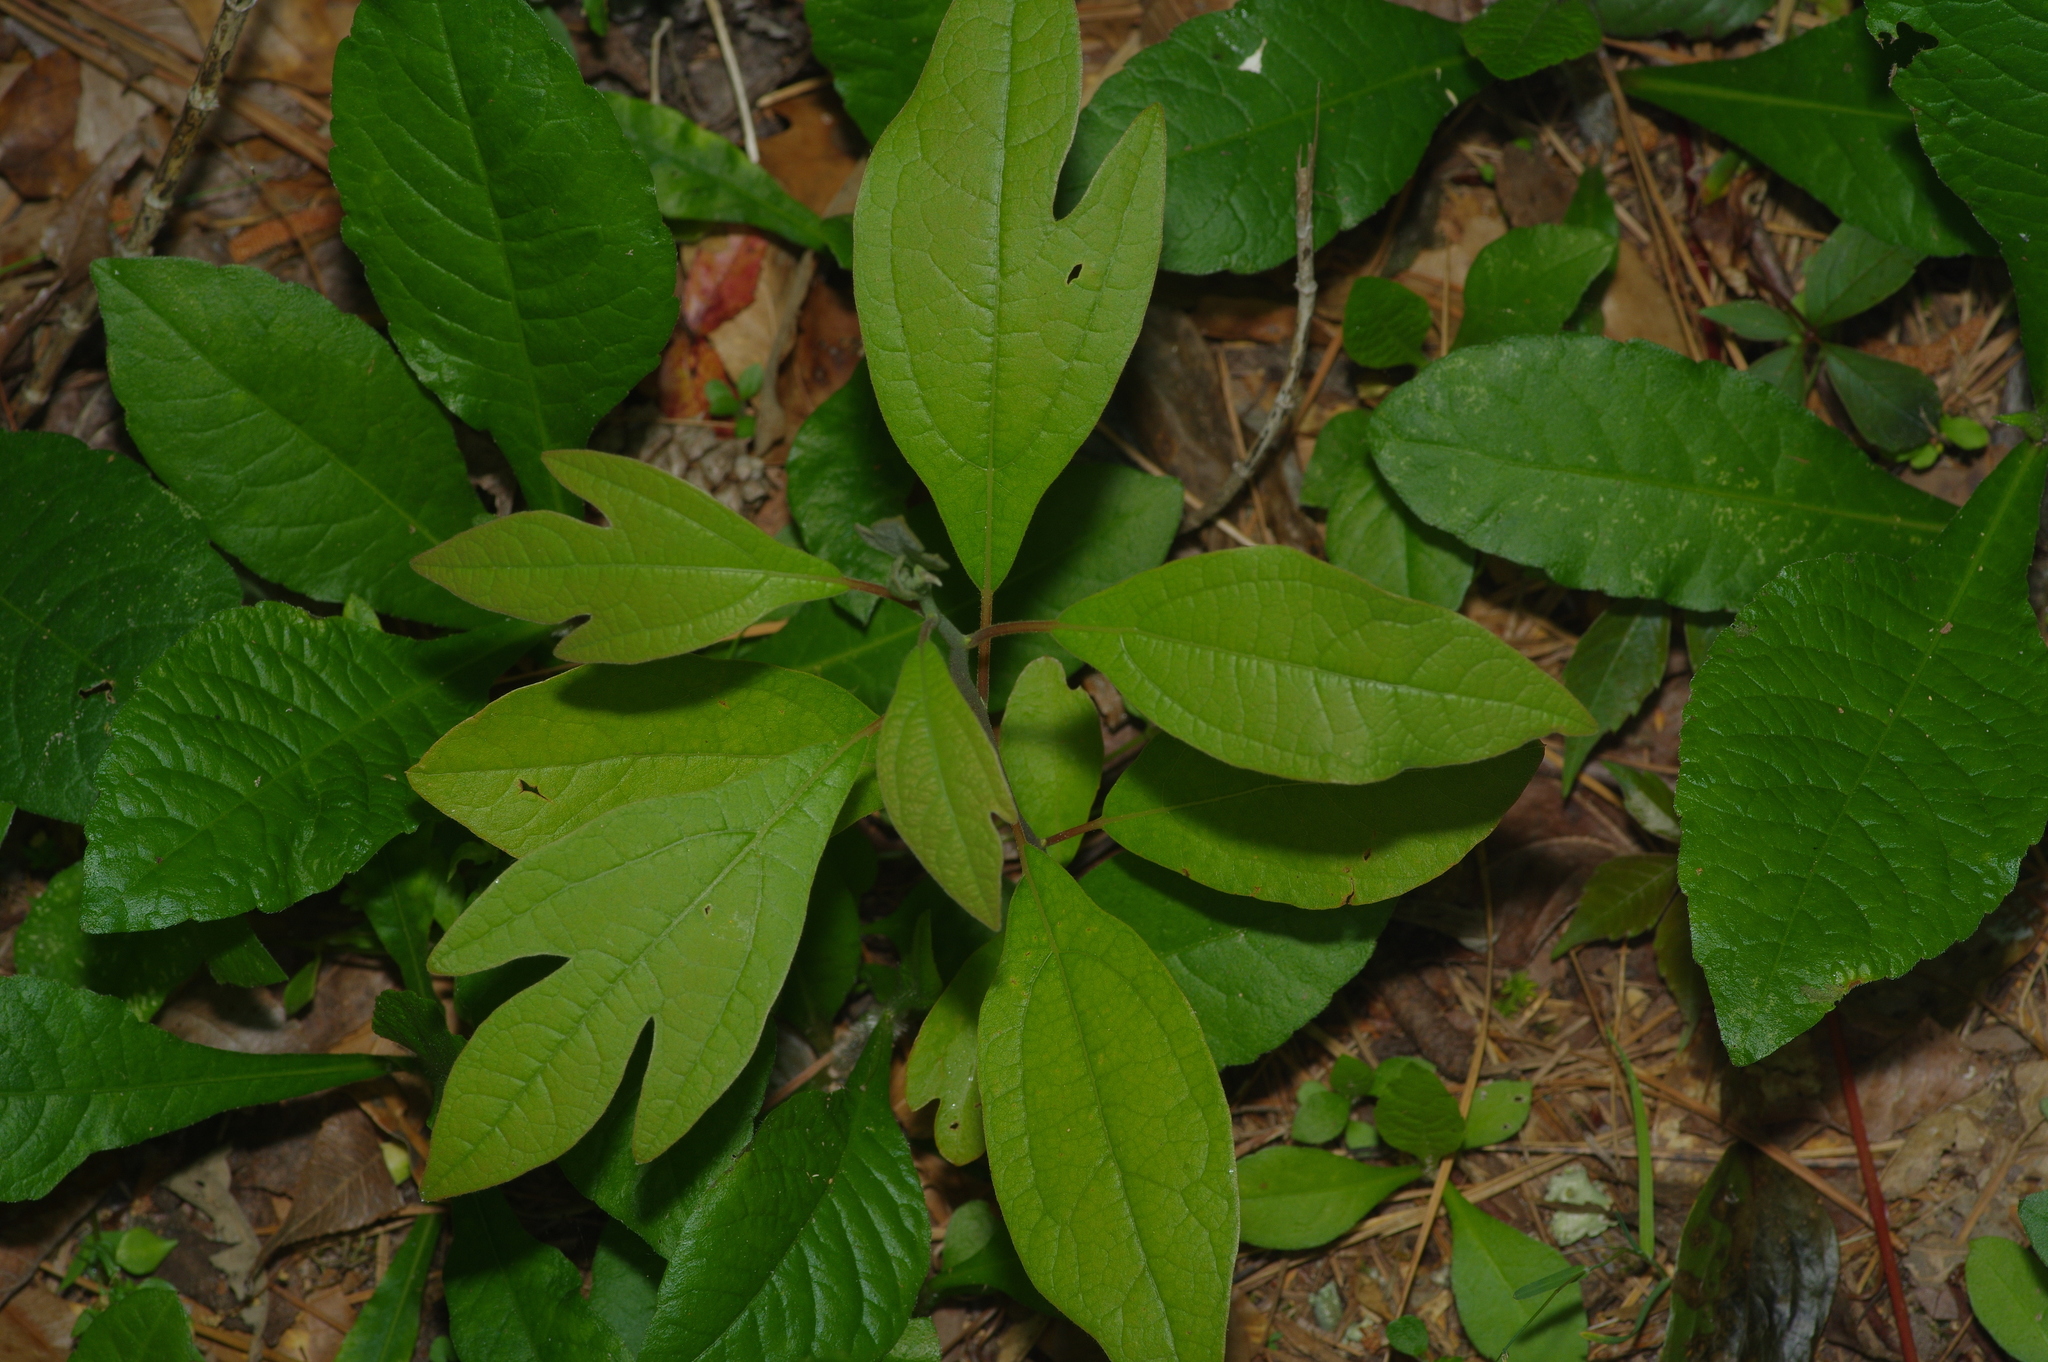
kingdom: Plantae
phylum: Tracheophyta
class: Magnoliopsida
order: Laurales
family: Lauraceae
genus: Sassafras
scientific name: Sassafras albidum
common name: Sassafras
